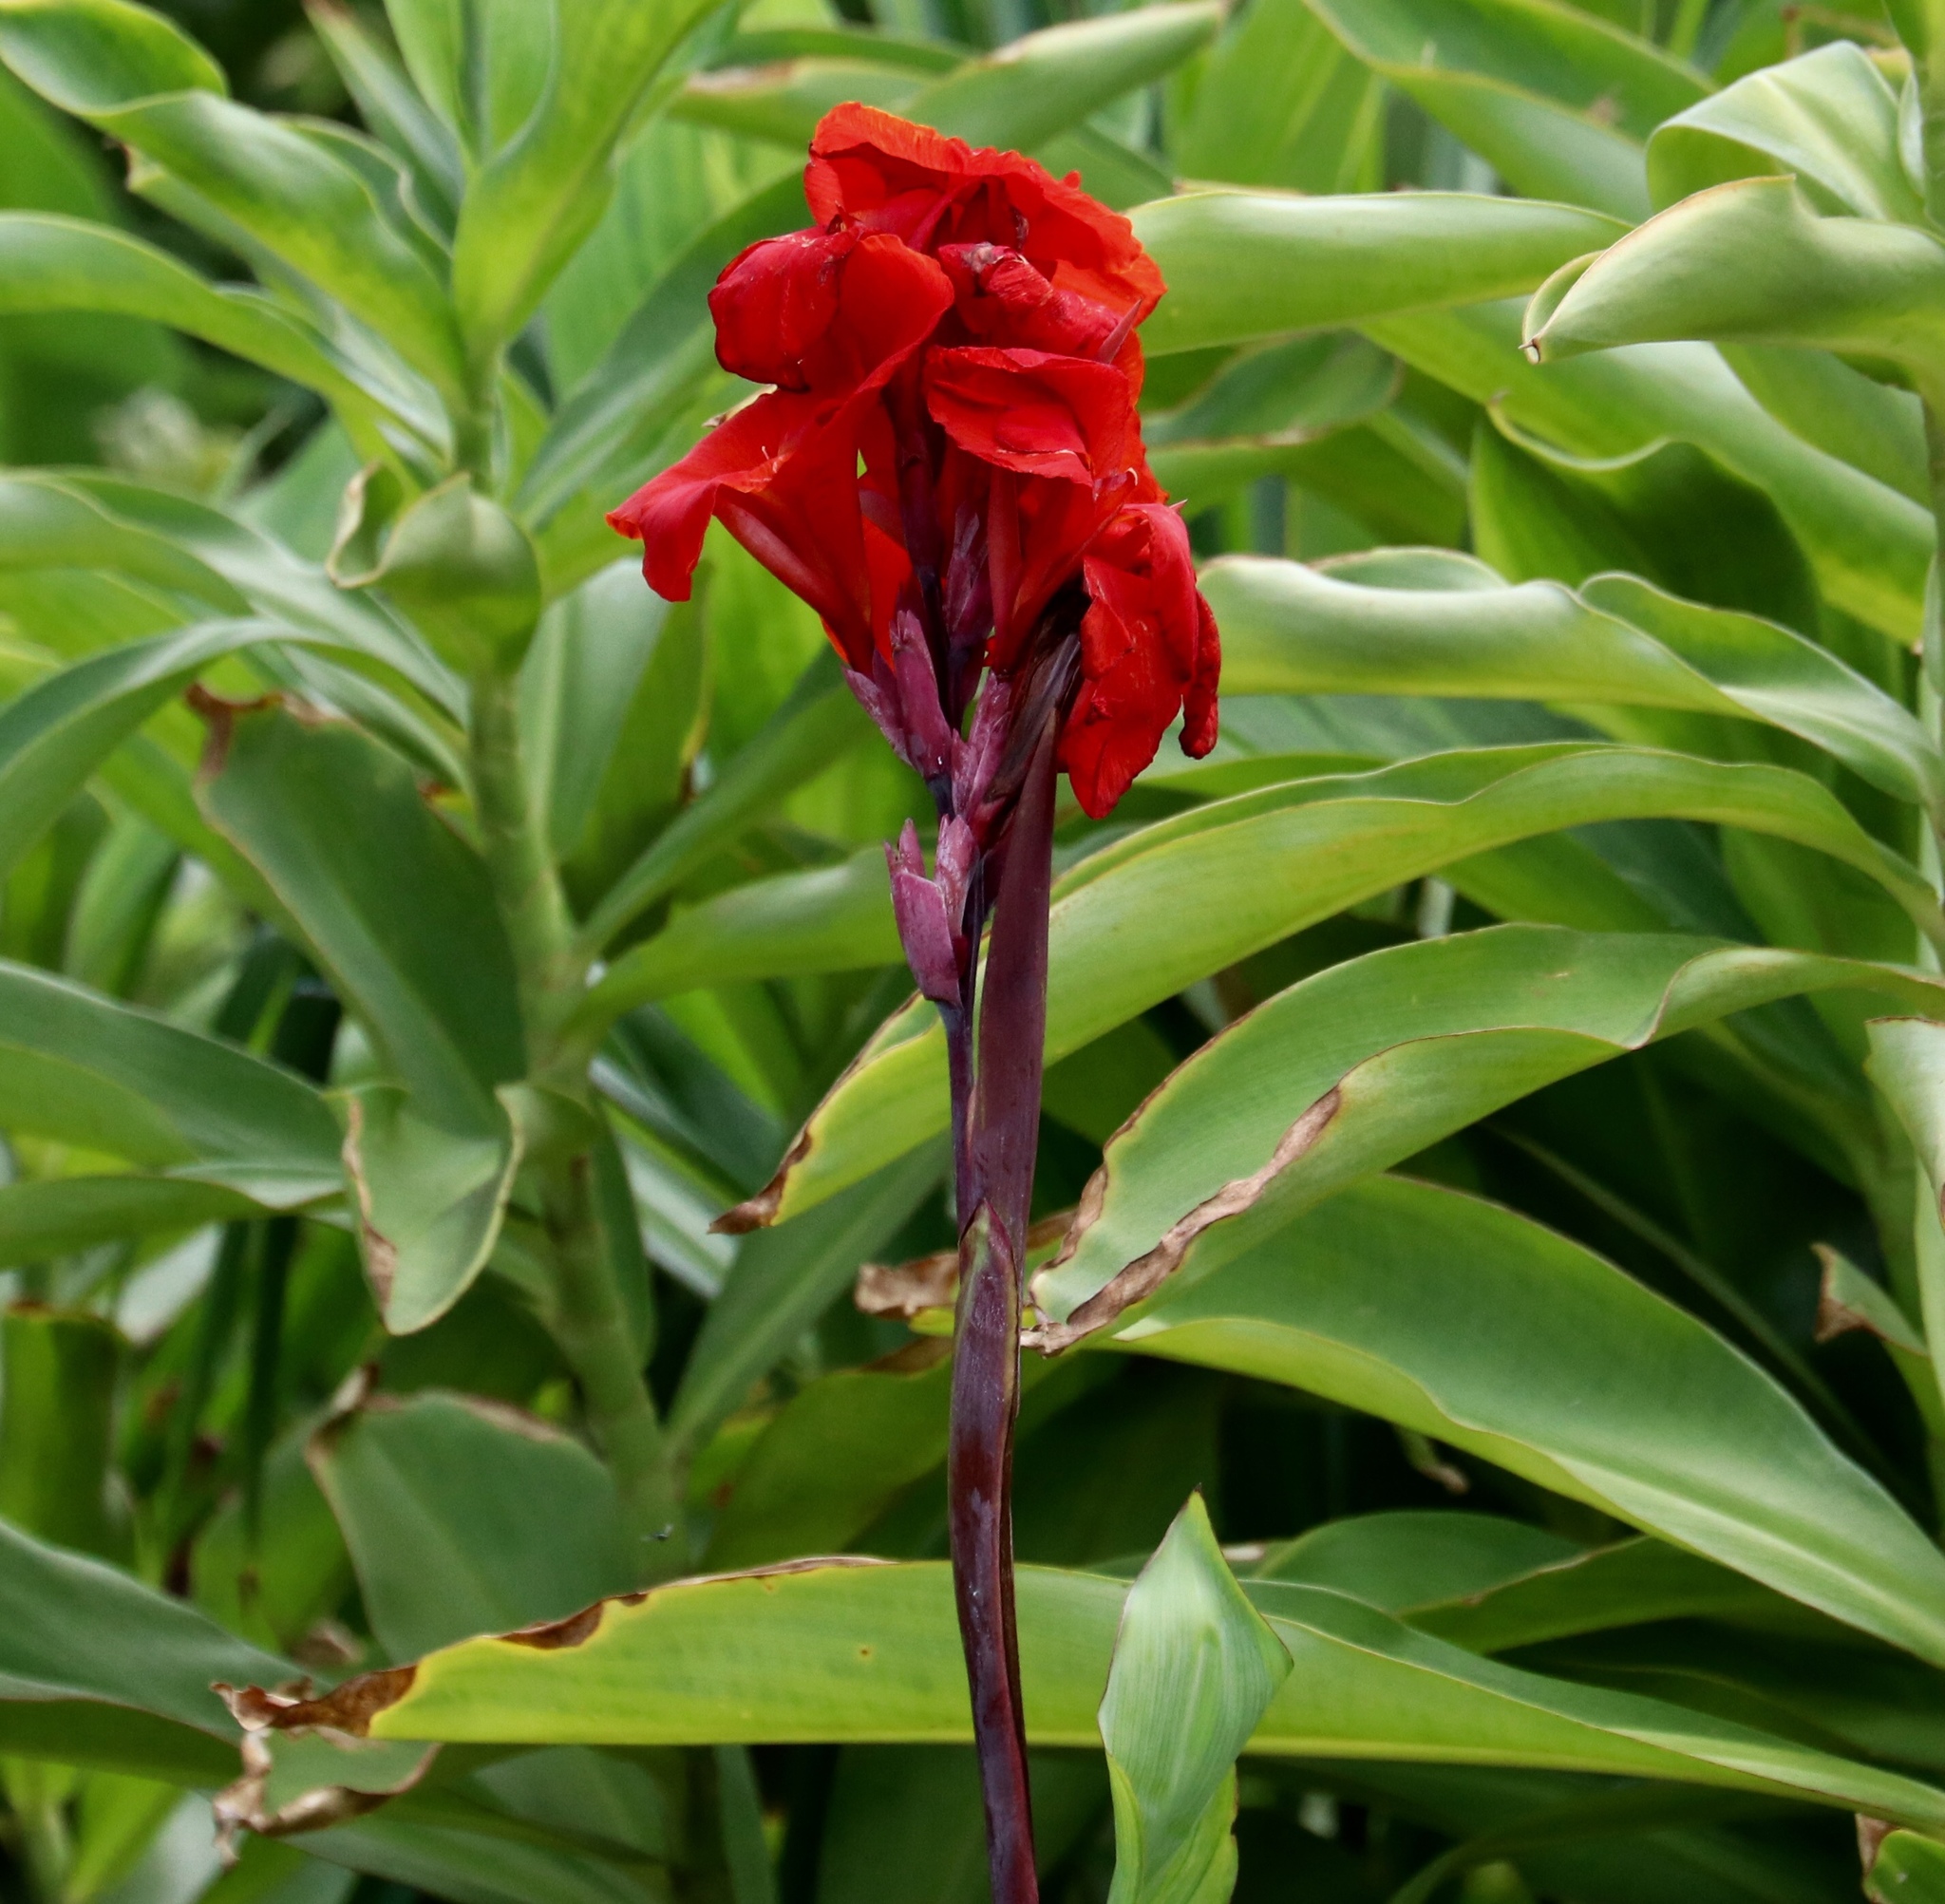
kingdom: Plantae
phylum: Tracheophyta
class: Liliopsida
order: Zingiberales
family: Cannaceae
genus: Canna
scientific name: Canna hybrida
